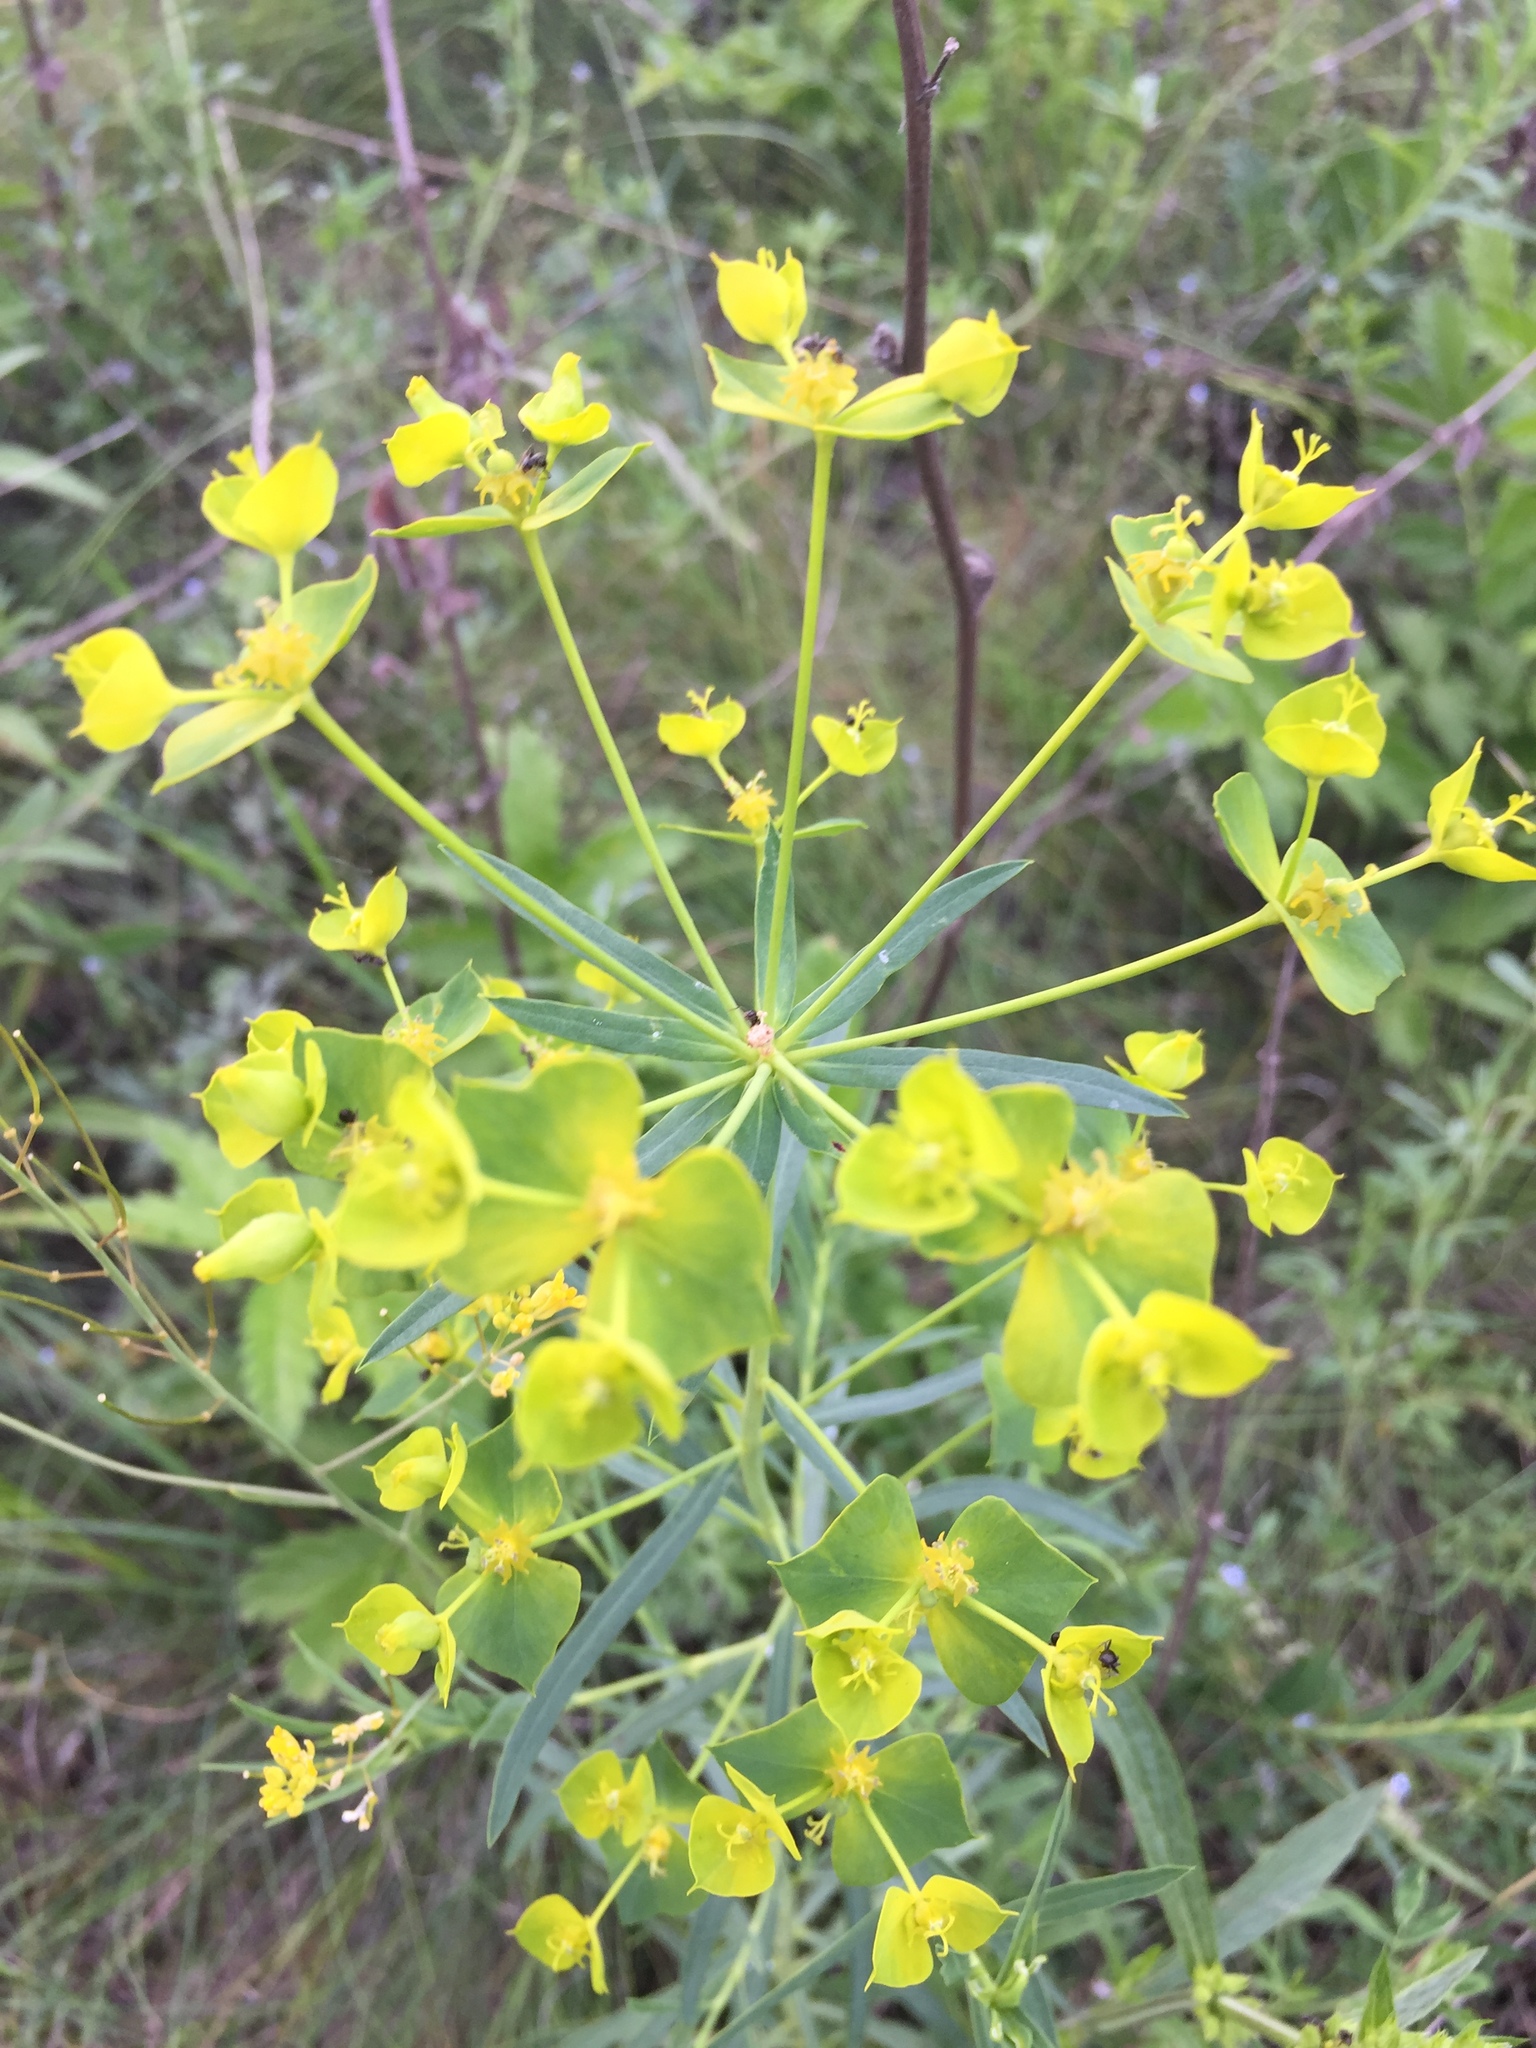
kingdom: Plantae
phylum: Tracheophyta
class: Magnoliopsida
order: Malpighiales
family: Euphorbiaceae
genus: Euphorbia
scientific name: Euphorbia virgata
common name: Leafy spurge
